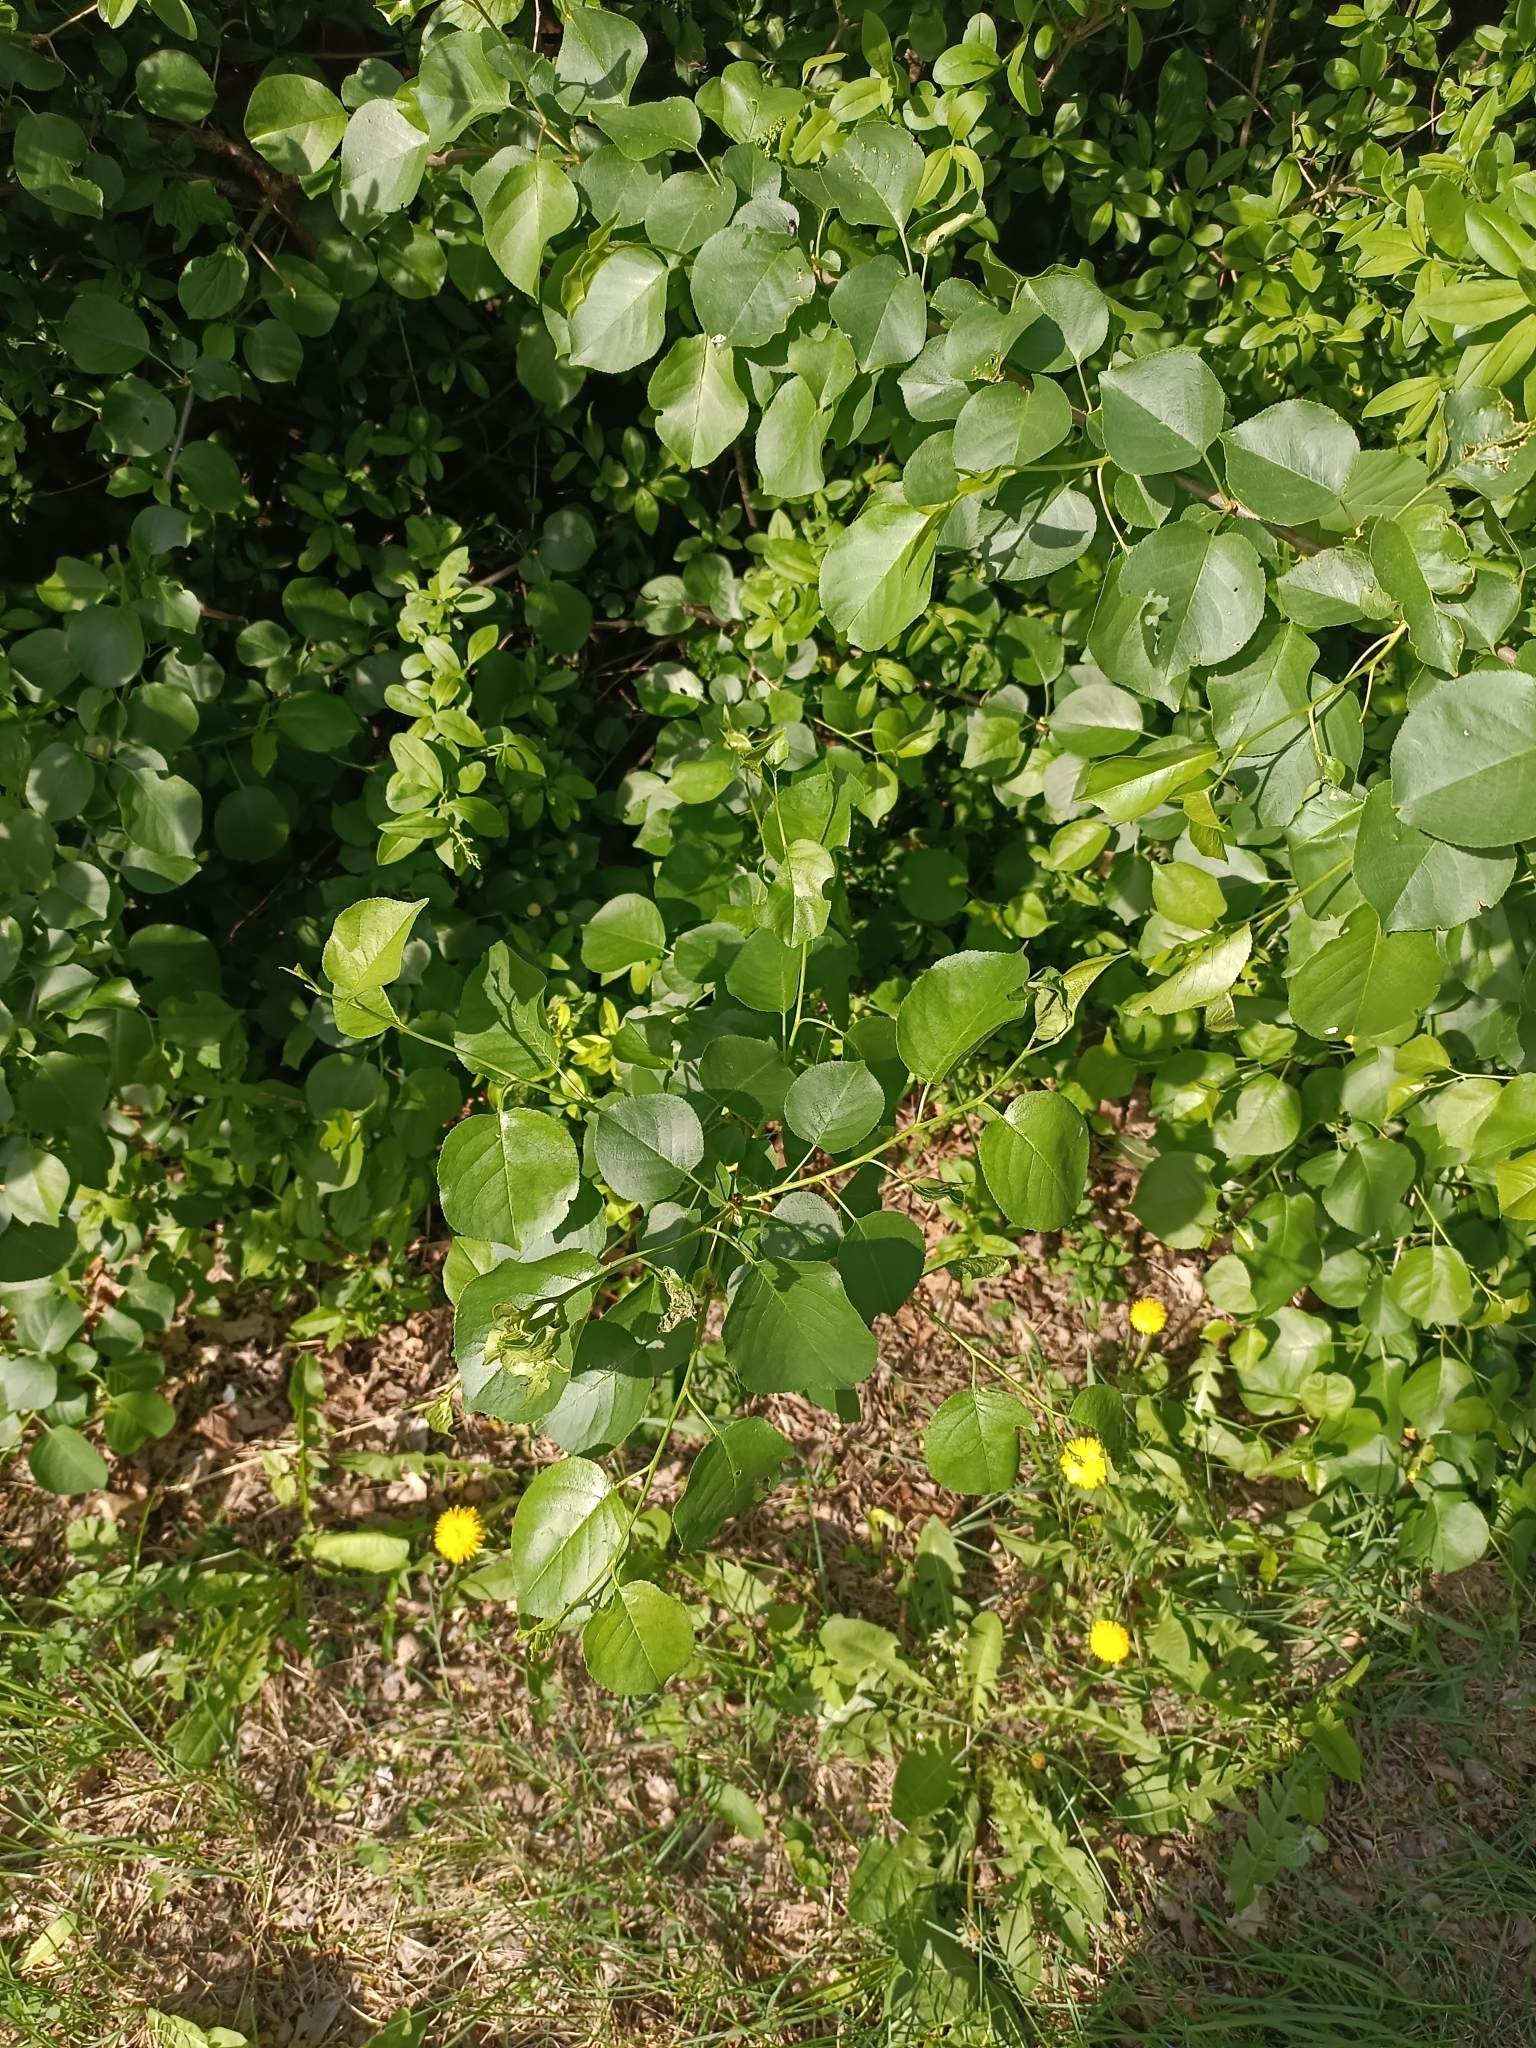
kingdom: Animalia
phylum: Arthropoda
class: Insecta
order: Lepidoptera
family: Noctuidae
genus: Diloba
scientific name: Diloba caeruleocephala
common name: Figure of eight
